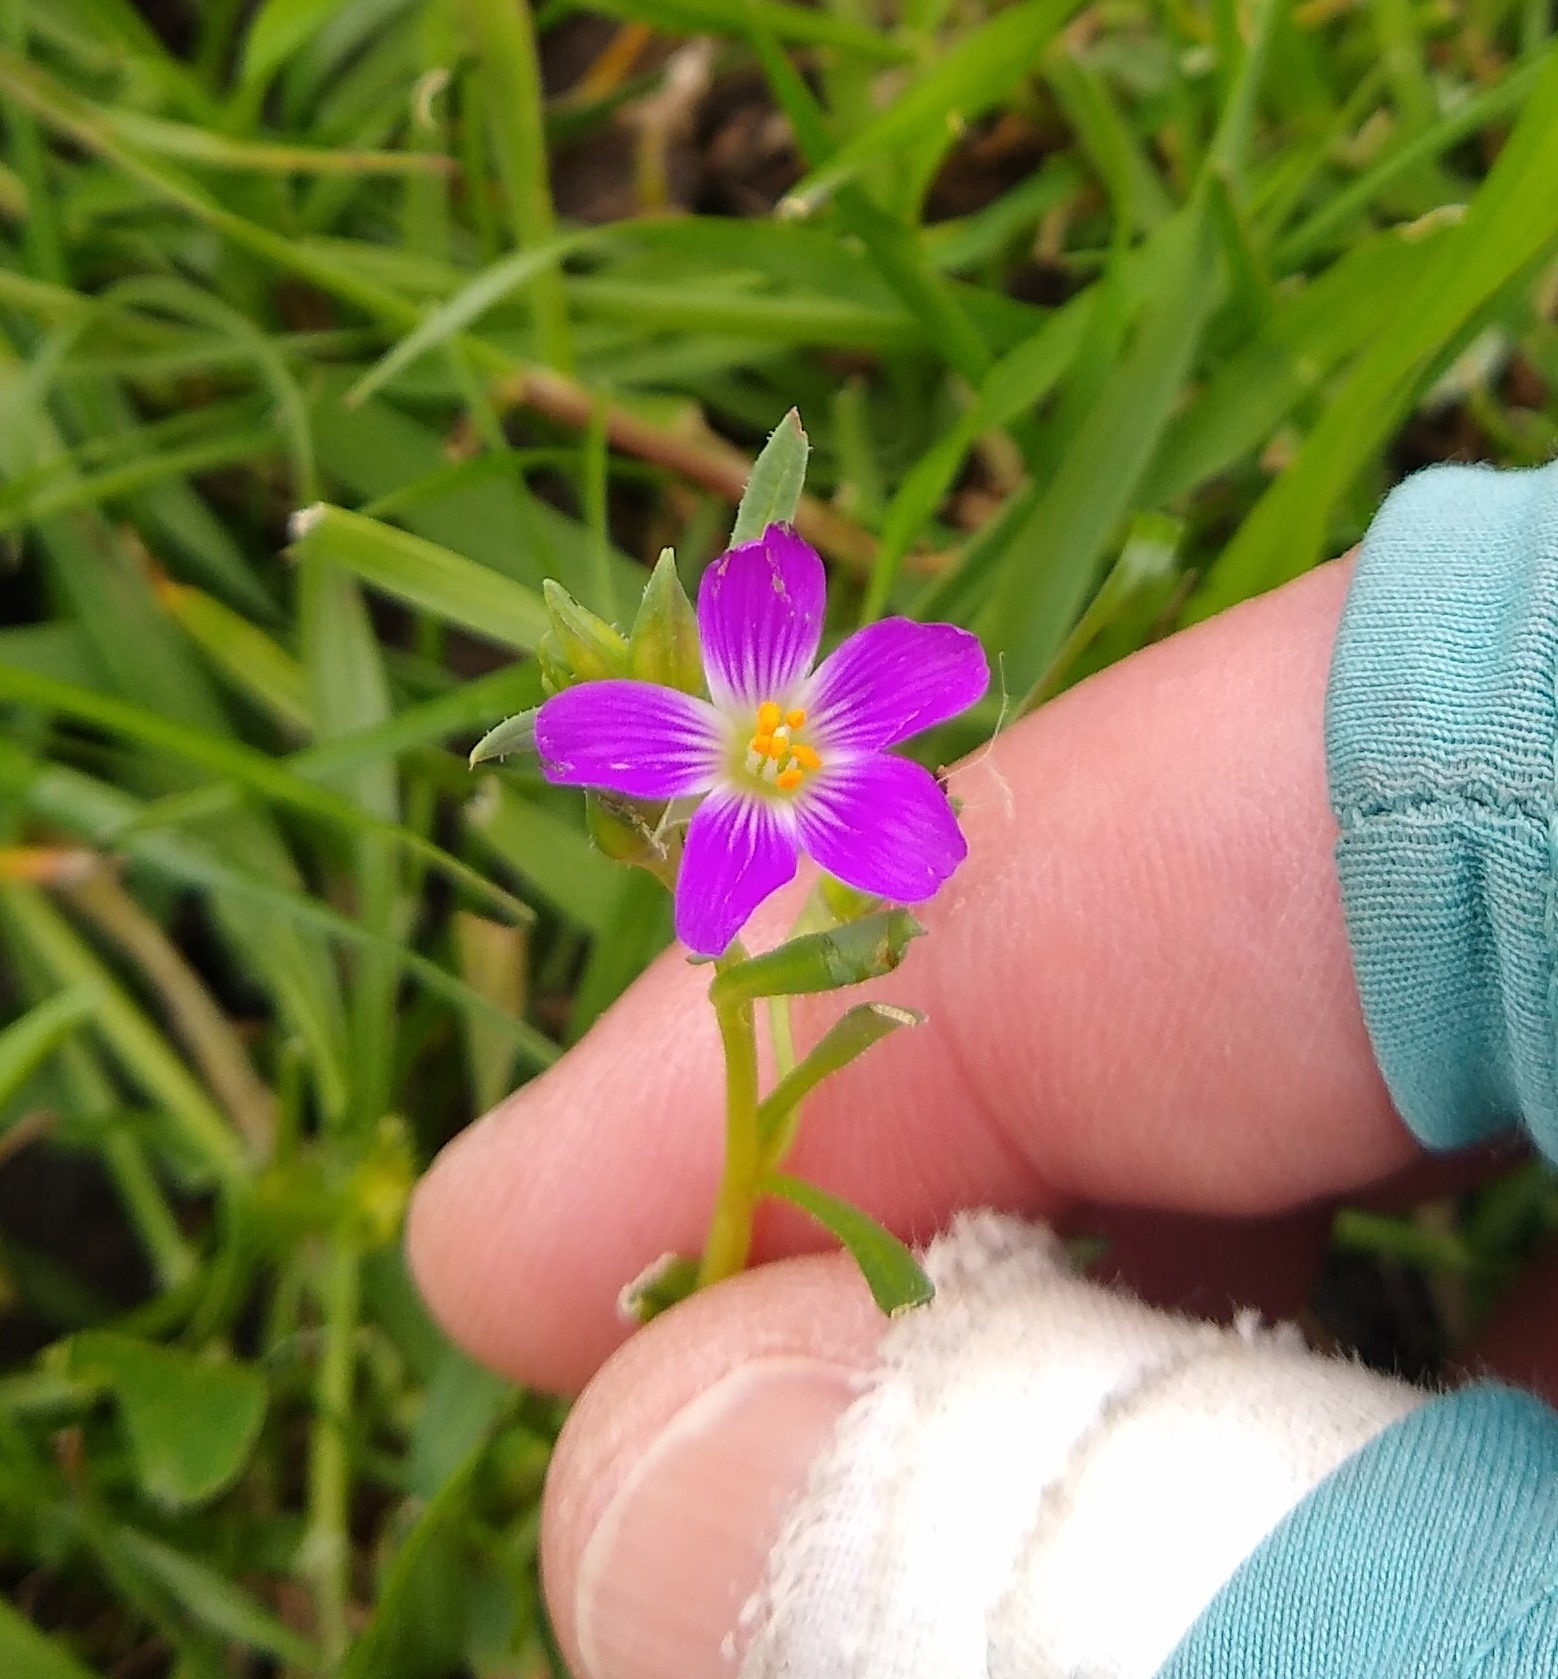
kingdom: Plantae
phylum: Tracheophyta
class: Magnoliopsida
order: Caryophyllales
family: Montiaceae
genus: Calandrinia
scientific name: Calandrinia menziesii
